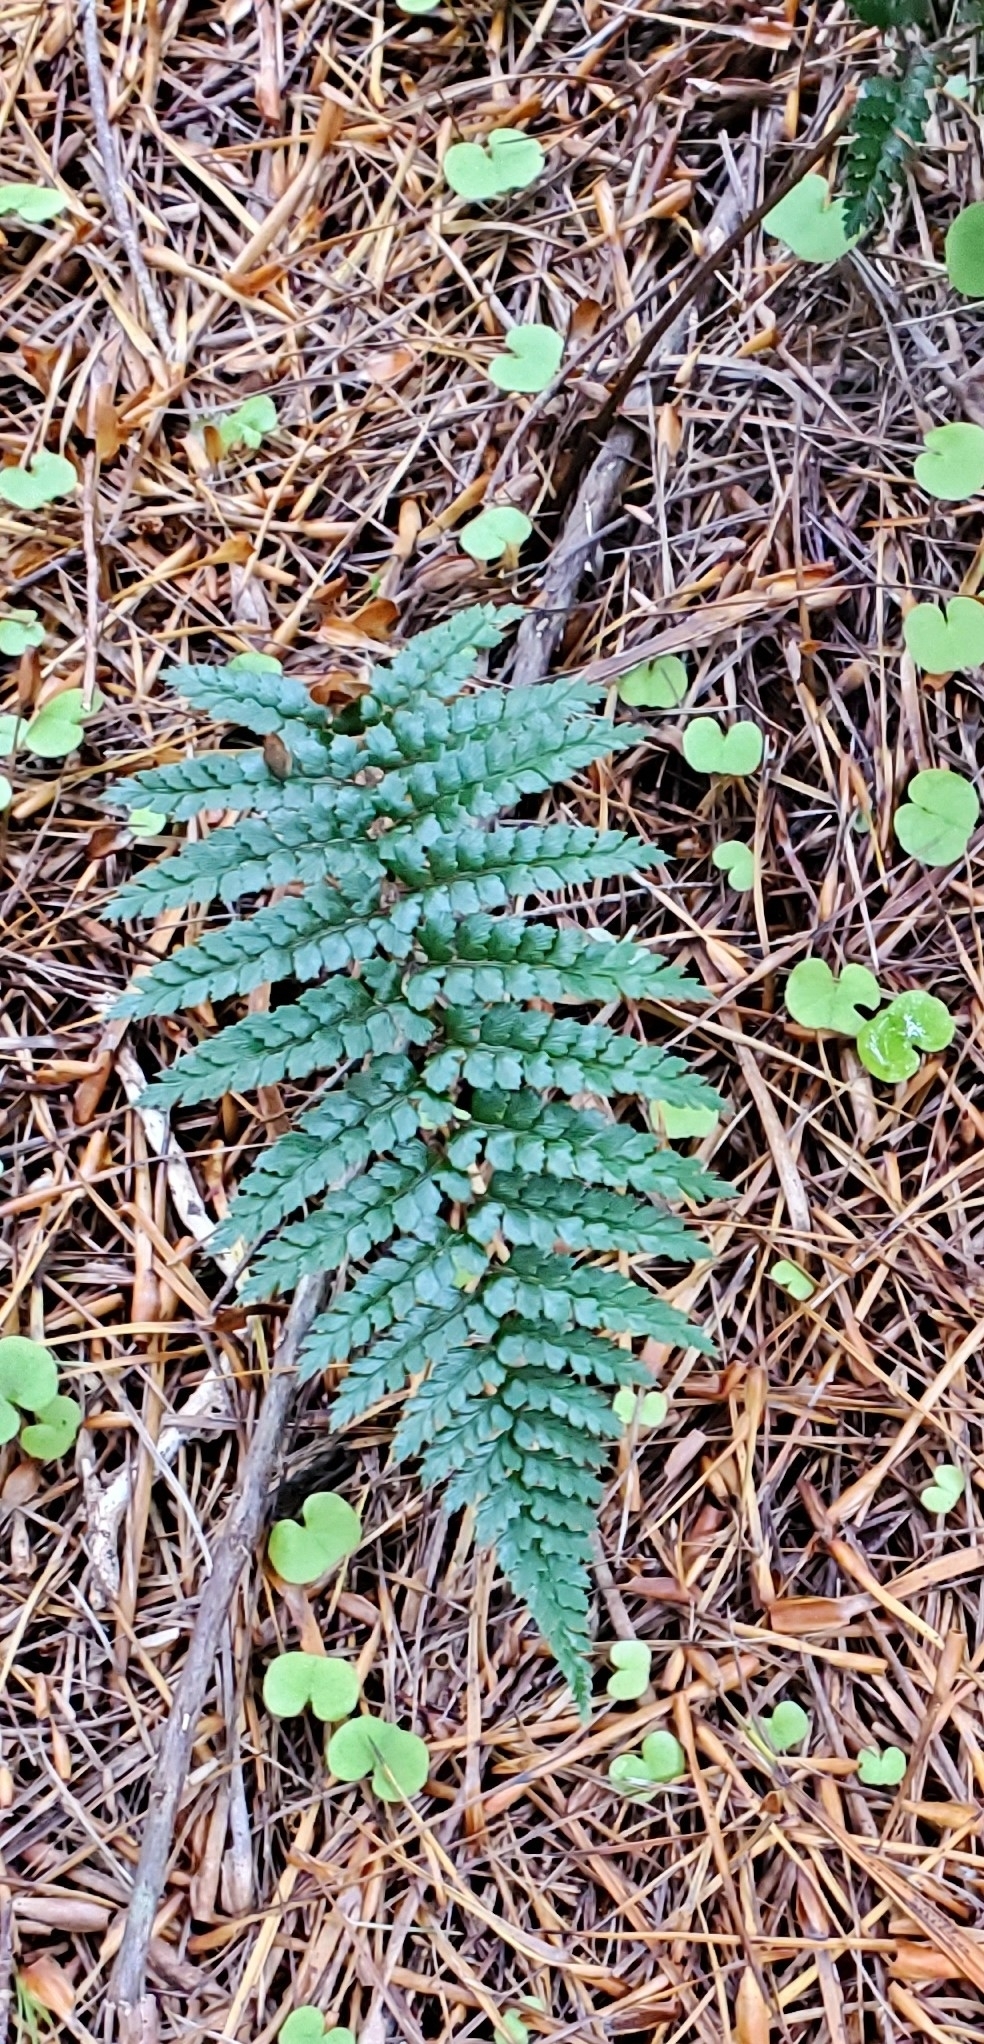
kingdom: Plantae
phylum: Tracheophyta
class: Polypodiopsida
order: Polypodiales
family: Dryopteridaceae
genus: Polystichum
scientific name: Polystichum vestitum
